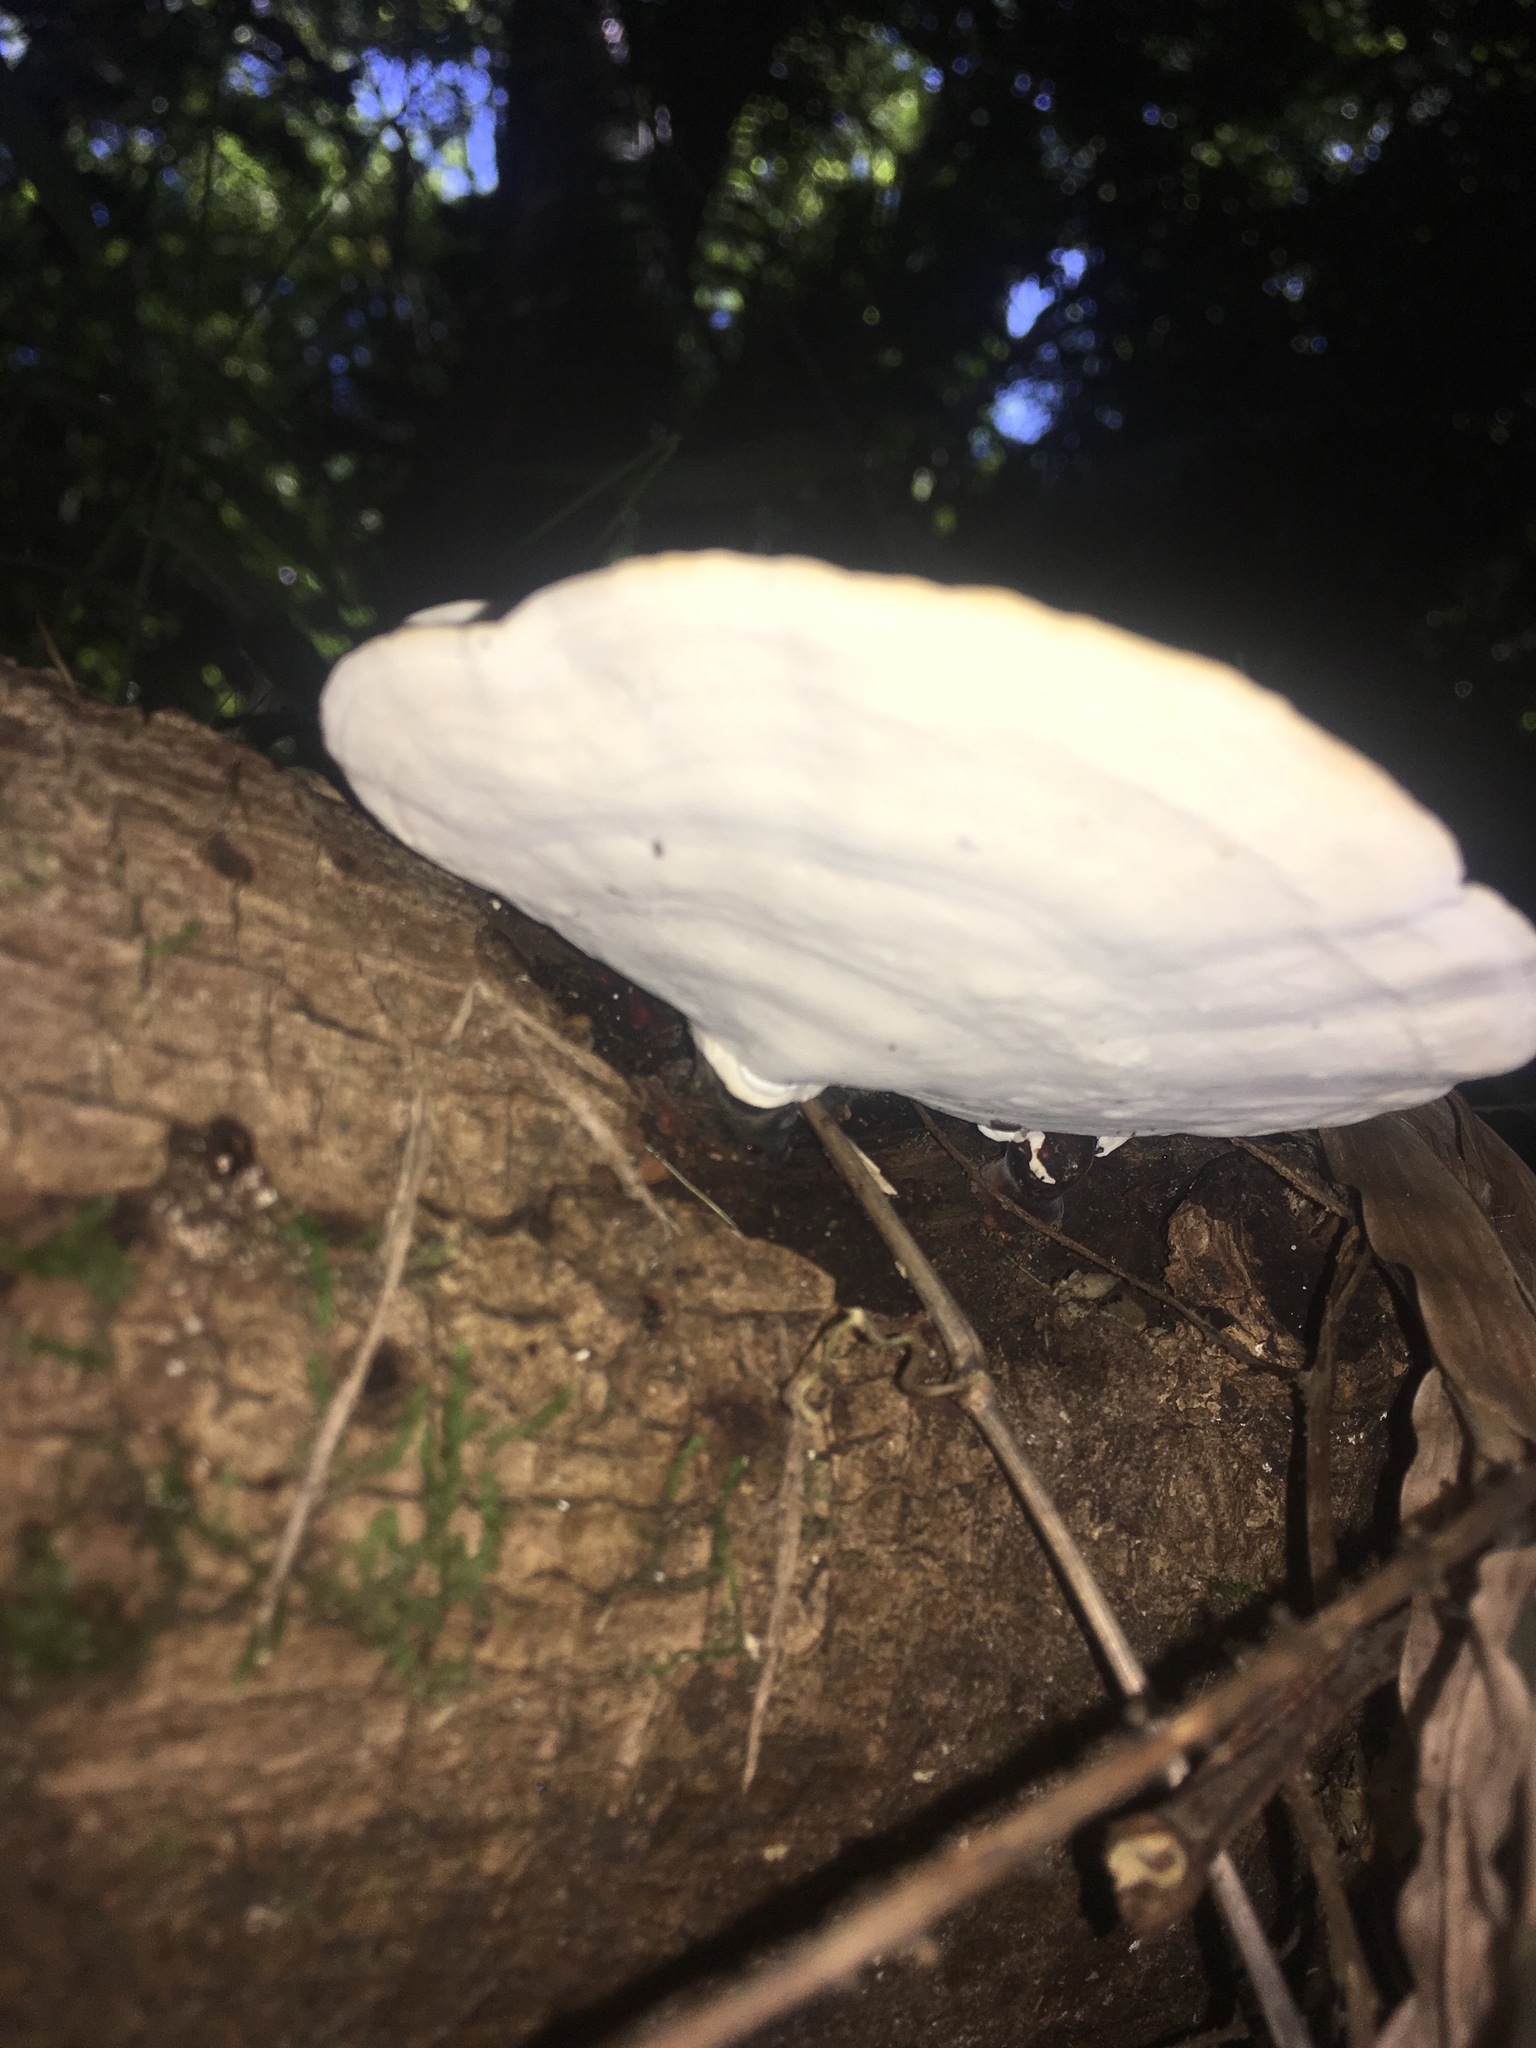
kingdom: Fungi
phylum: Basidiomycota
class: Agaricomycetes
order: Polyporales
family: Polyporaceae
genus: Microporus
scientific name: Microporus affinis
